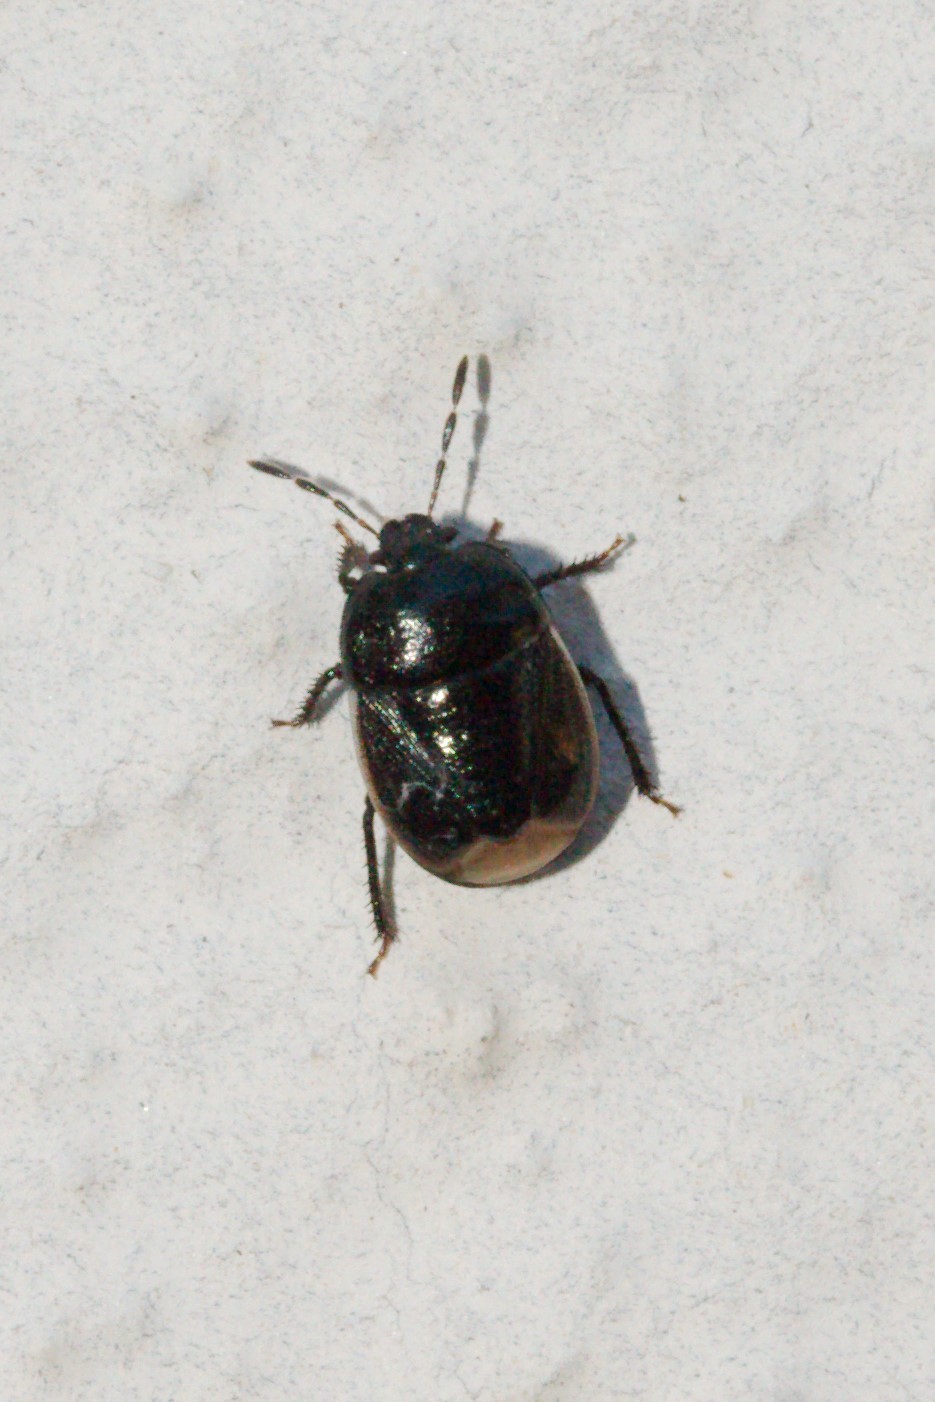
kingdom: Animalia
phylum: Arthropoda
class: Insecta
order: Hemiptera
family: Cydnidae
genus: Legnotus
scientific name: Legnotus limbosus
